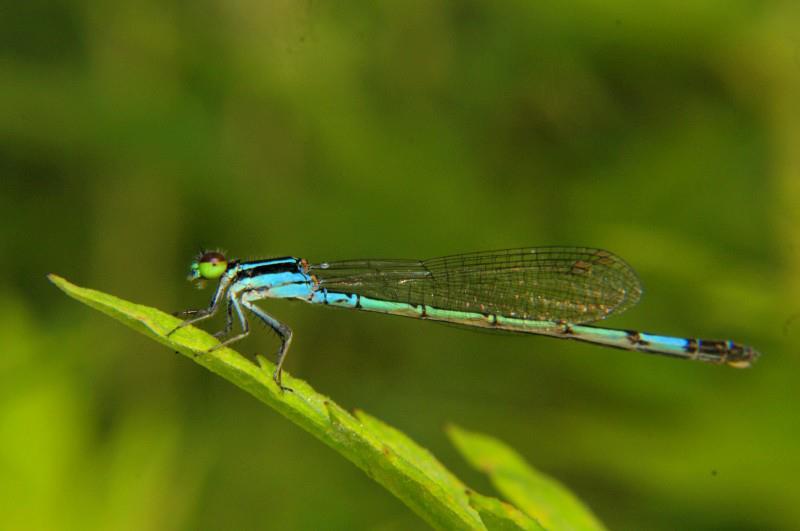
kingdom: Animalia
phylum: Arthropoda
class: Insecta
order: Odonata
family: Coenagrionidae
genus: Agriocnemis
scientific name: Agriocnemis clauseni
